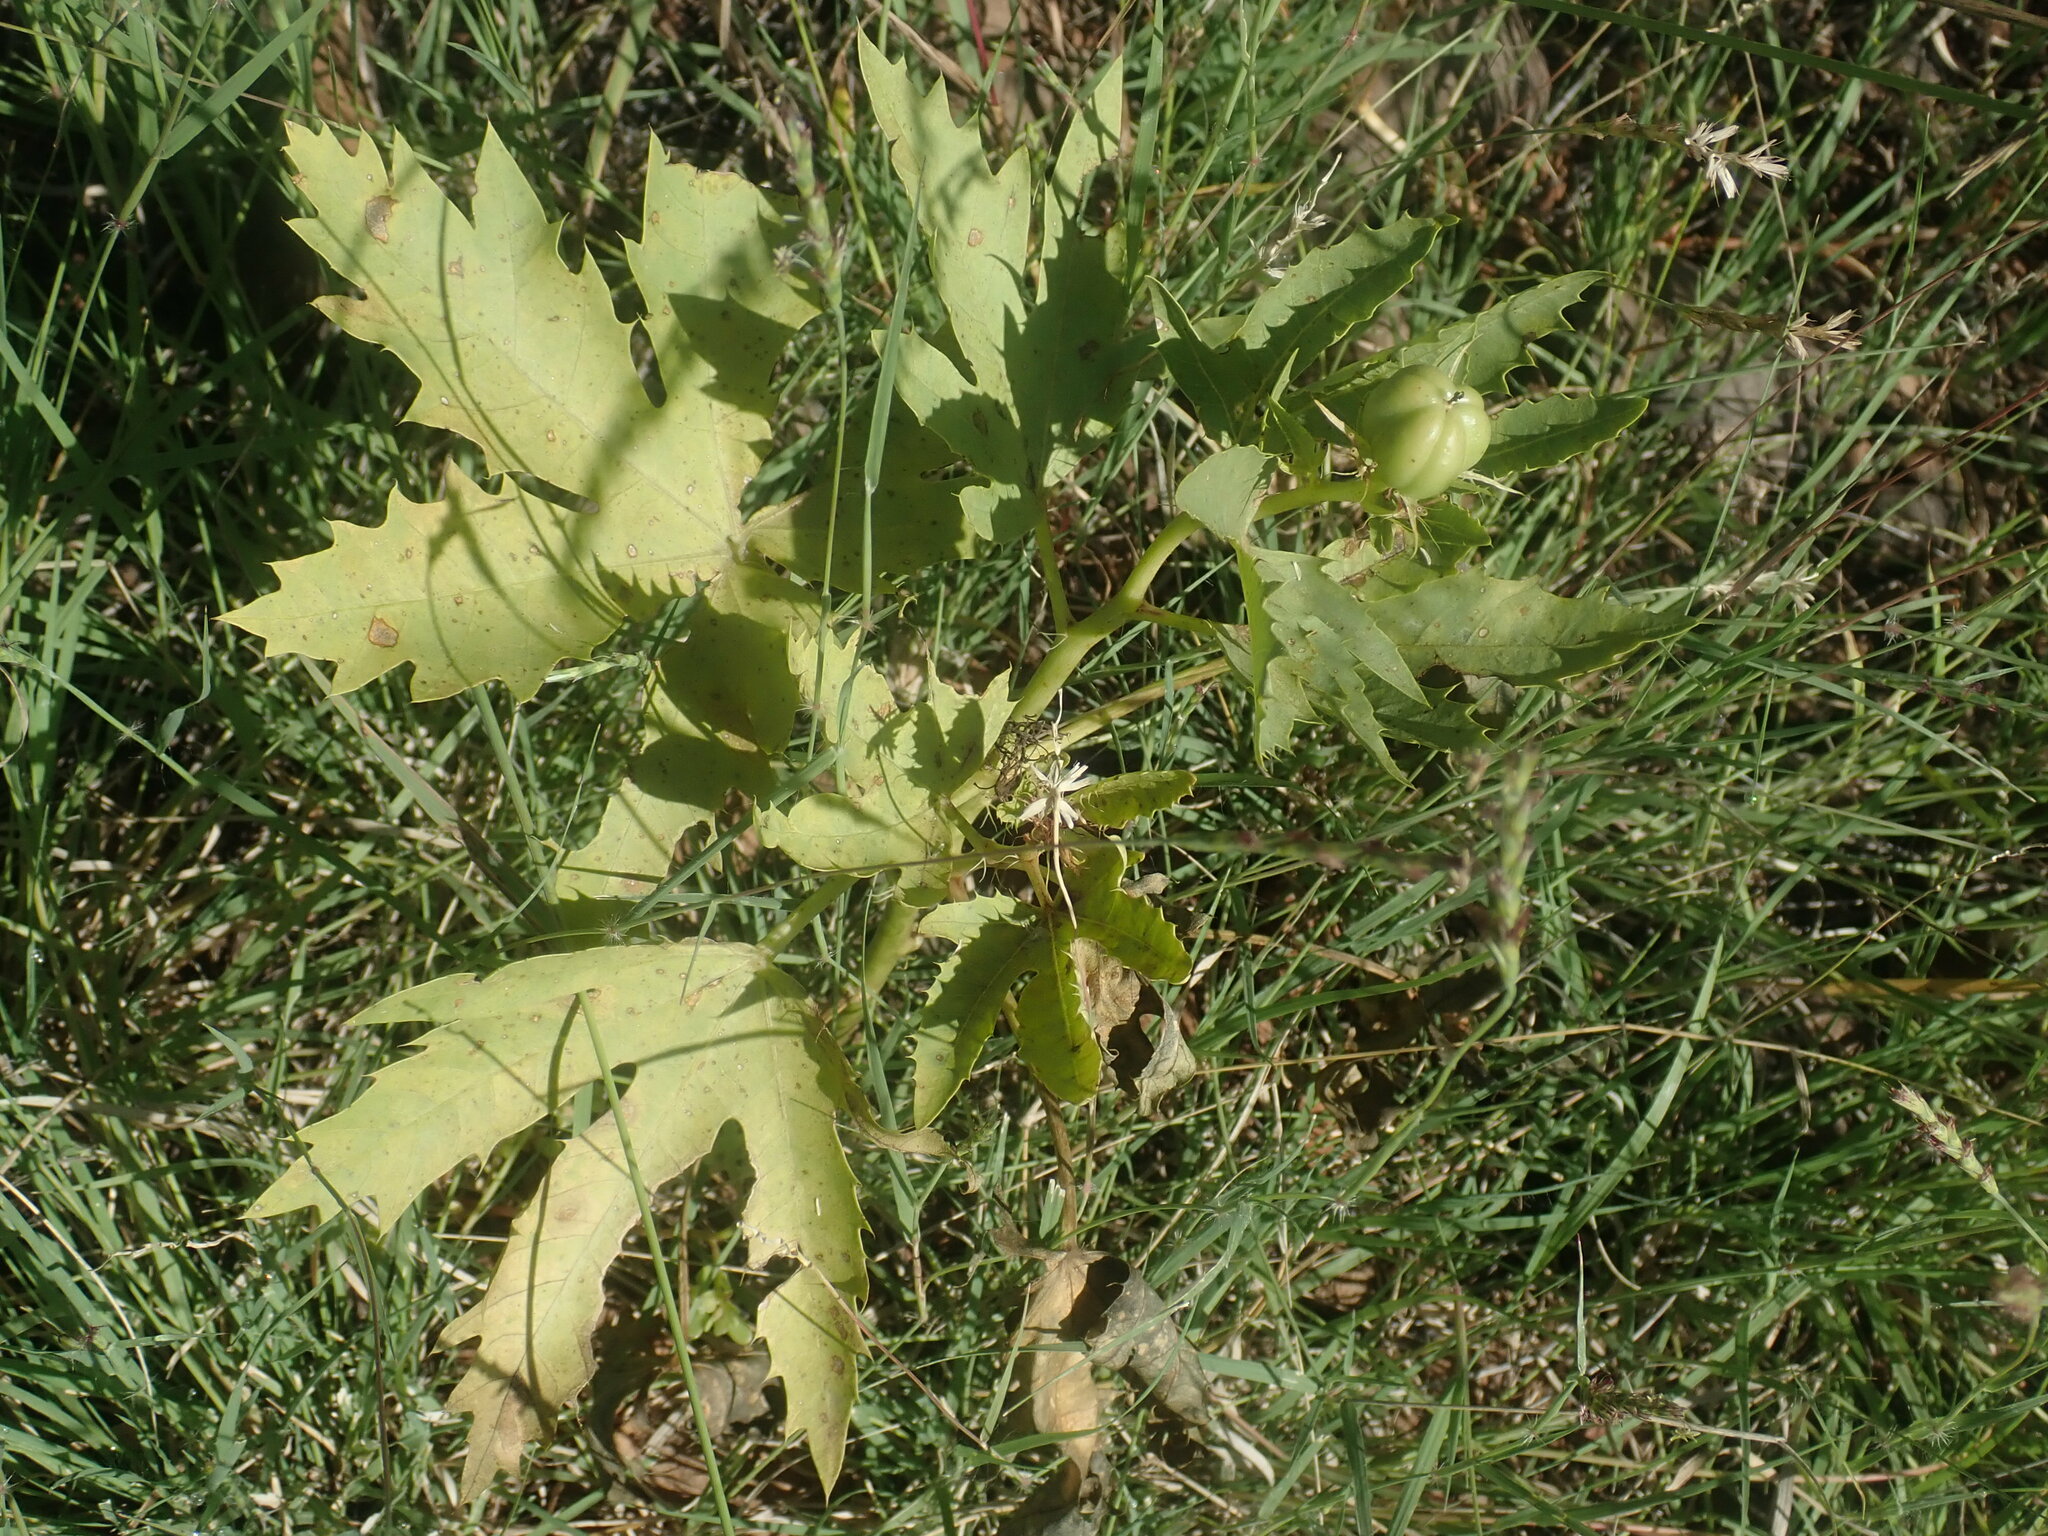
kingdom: Plantae
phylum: Tracheophyta
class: Magnoliopsida
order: Malpighiales
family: Euphorbiaceae
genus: Jatropha
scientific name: Jatropha macrorhiza
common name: Ragged nettlespurge
